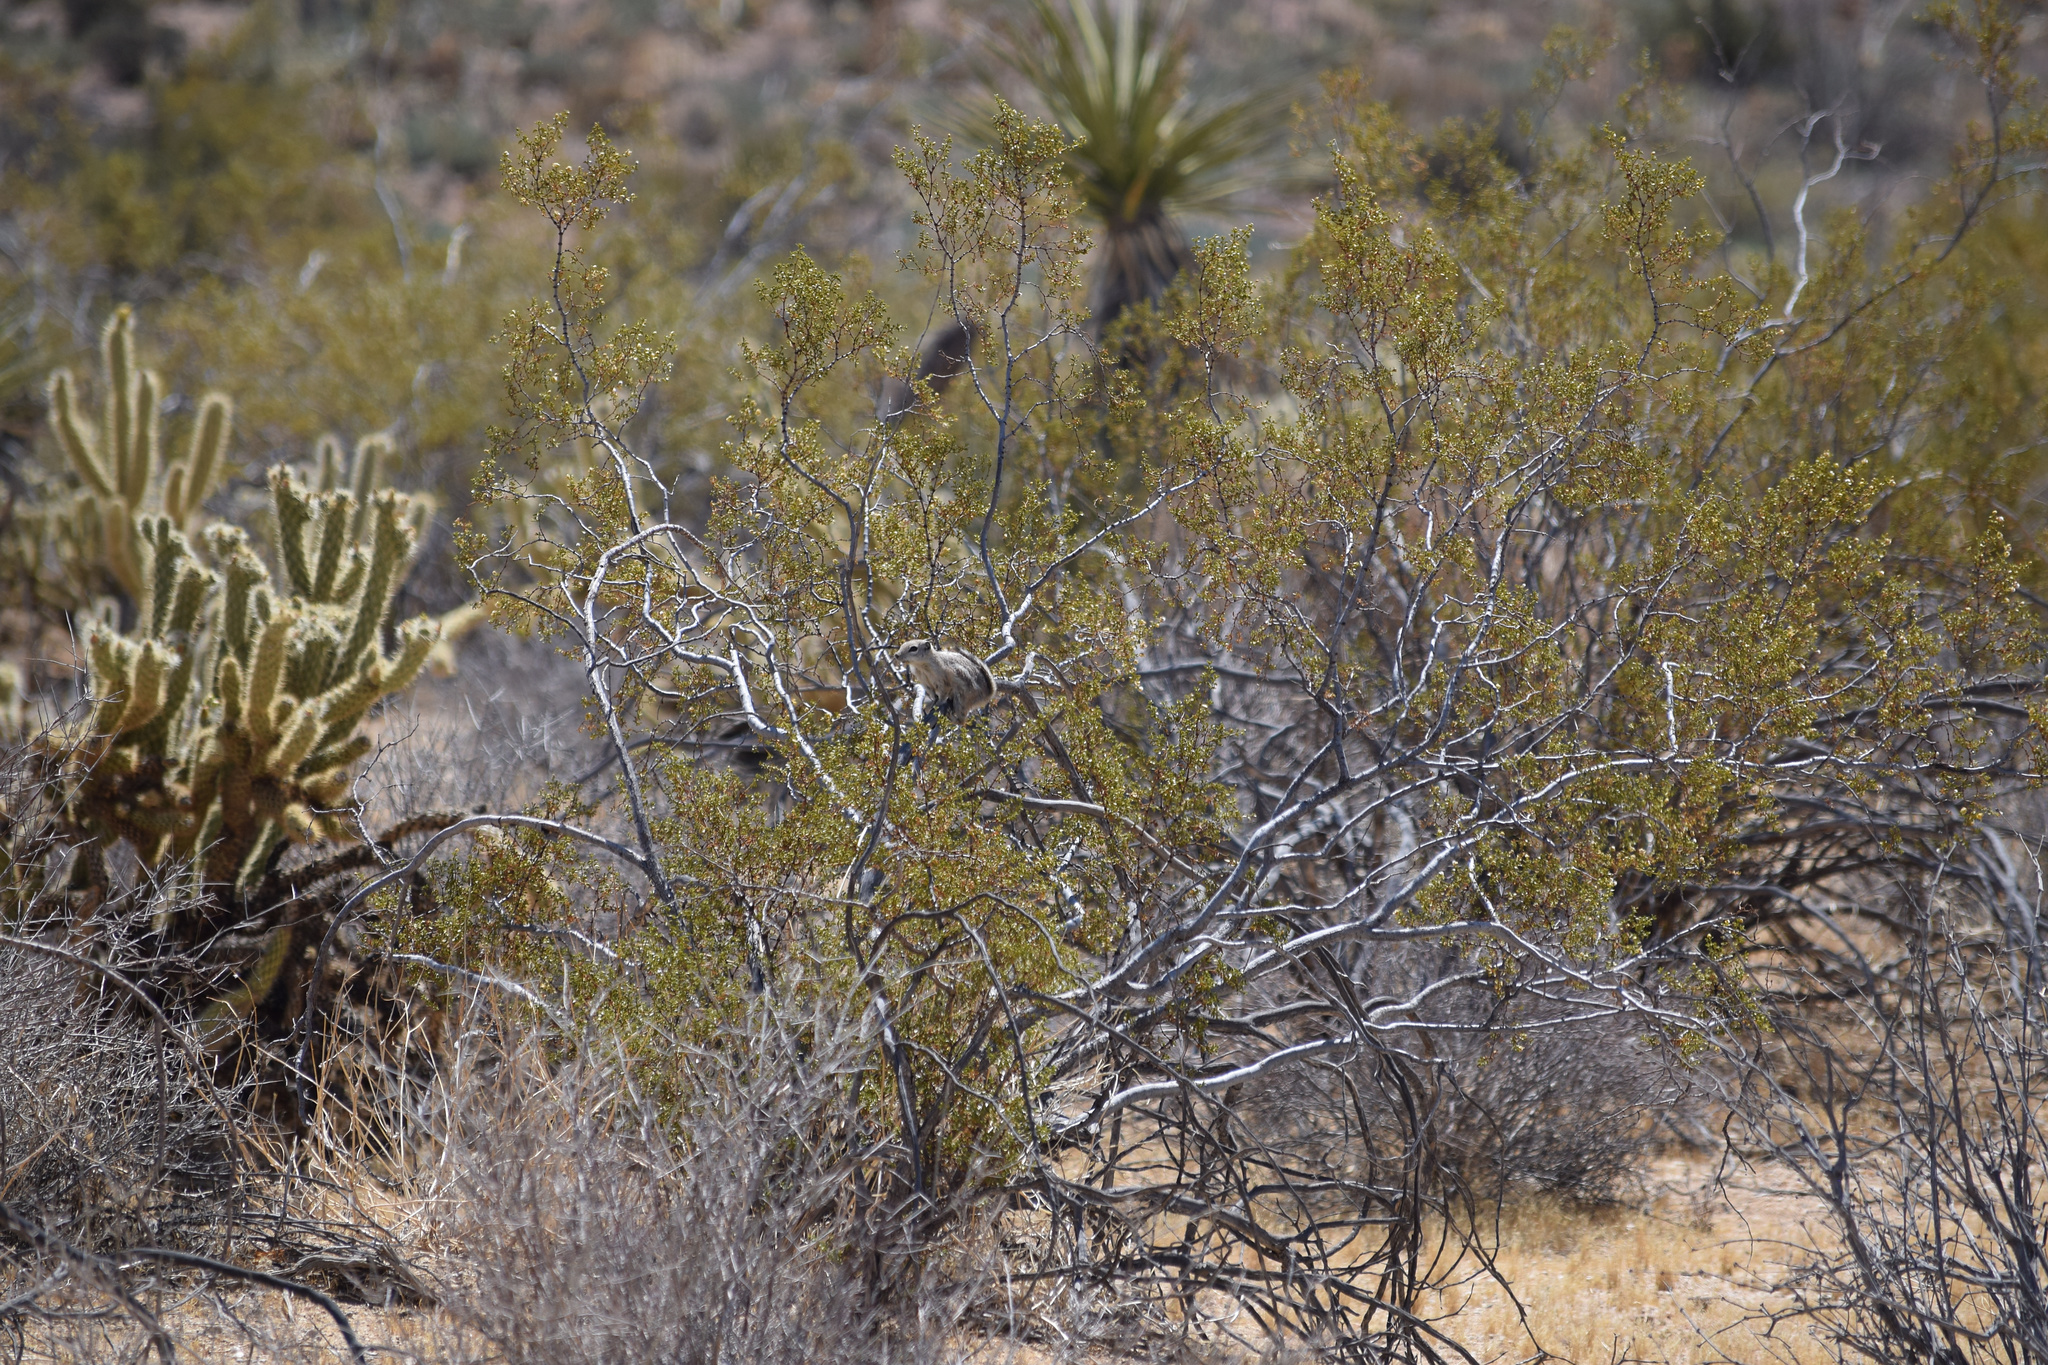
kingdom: Animalia
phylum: Chordata
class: Mammalia
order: Rodentia
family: Sciuridae
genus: Ammospermophilus
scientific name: Ammospermophilus leucurus
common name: White-tailed antelope squirrel
